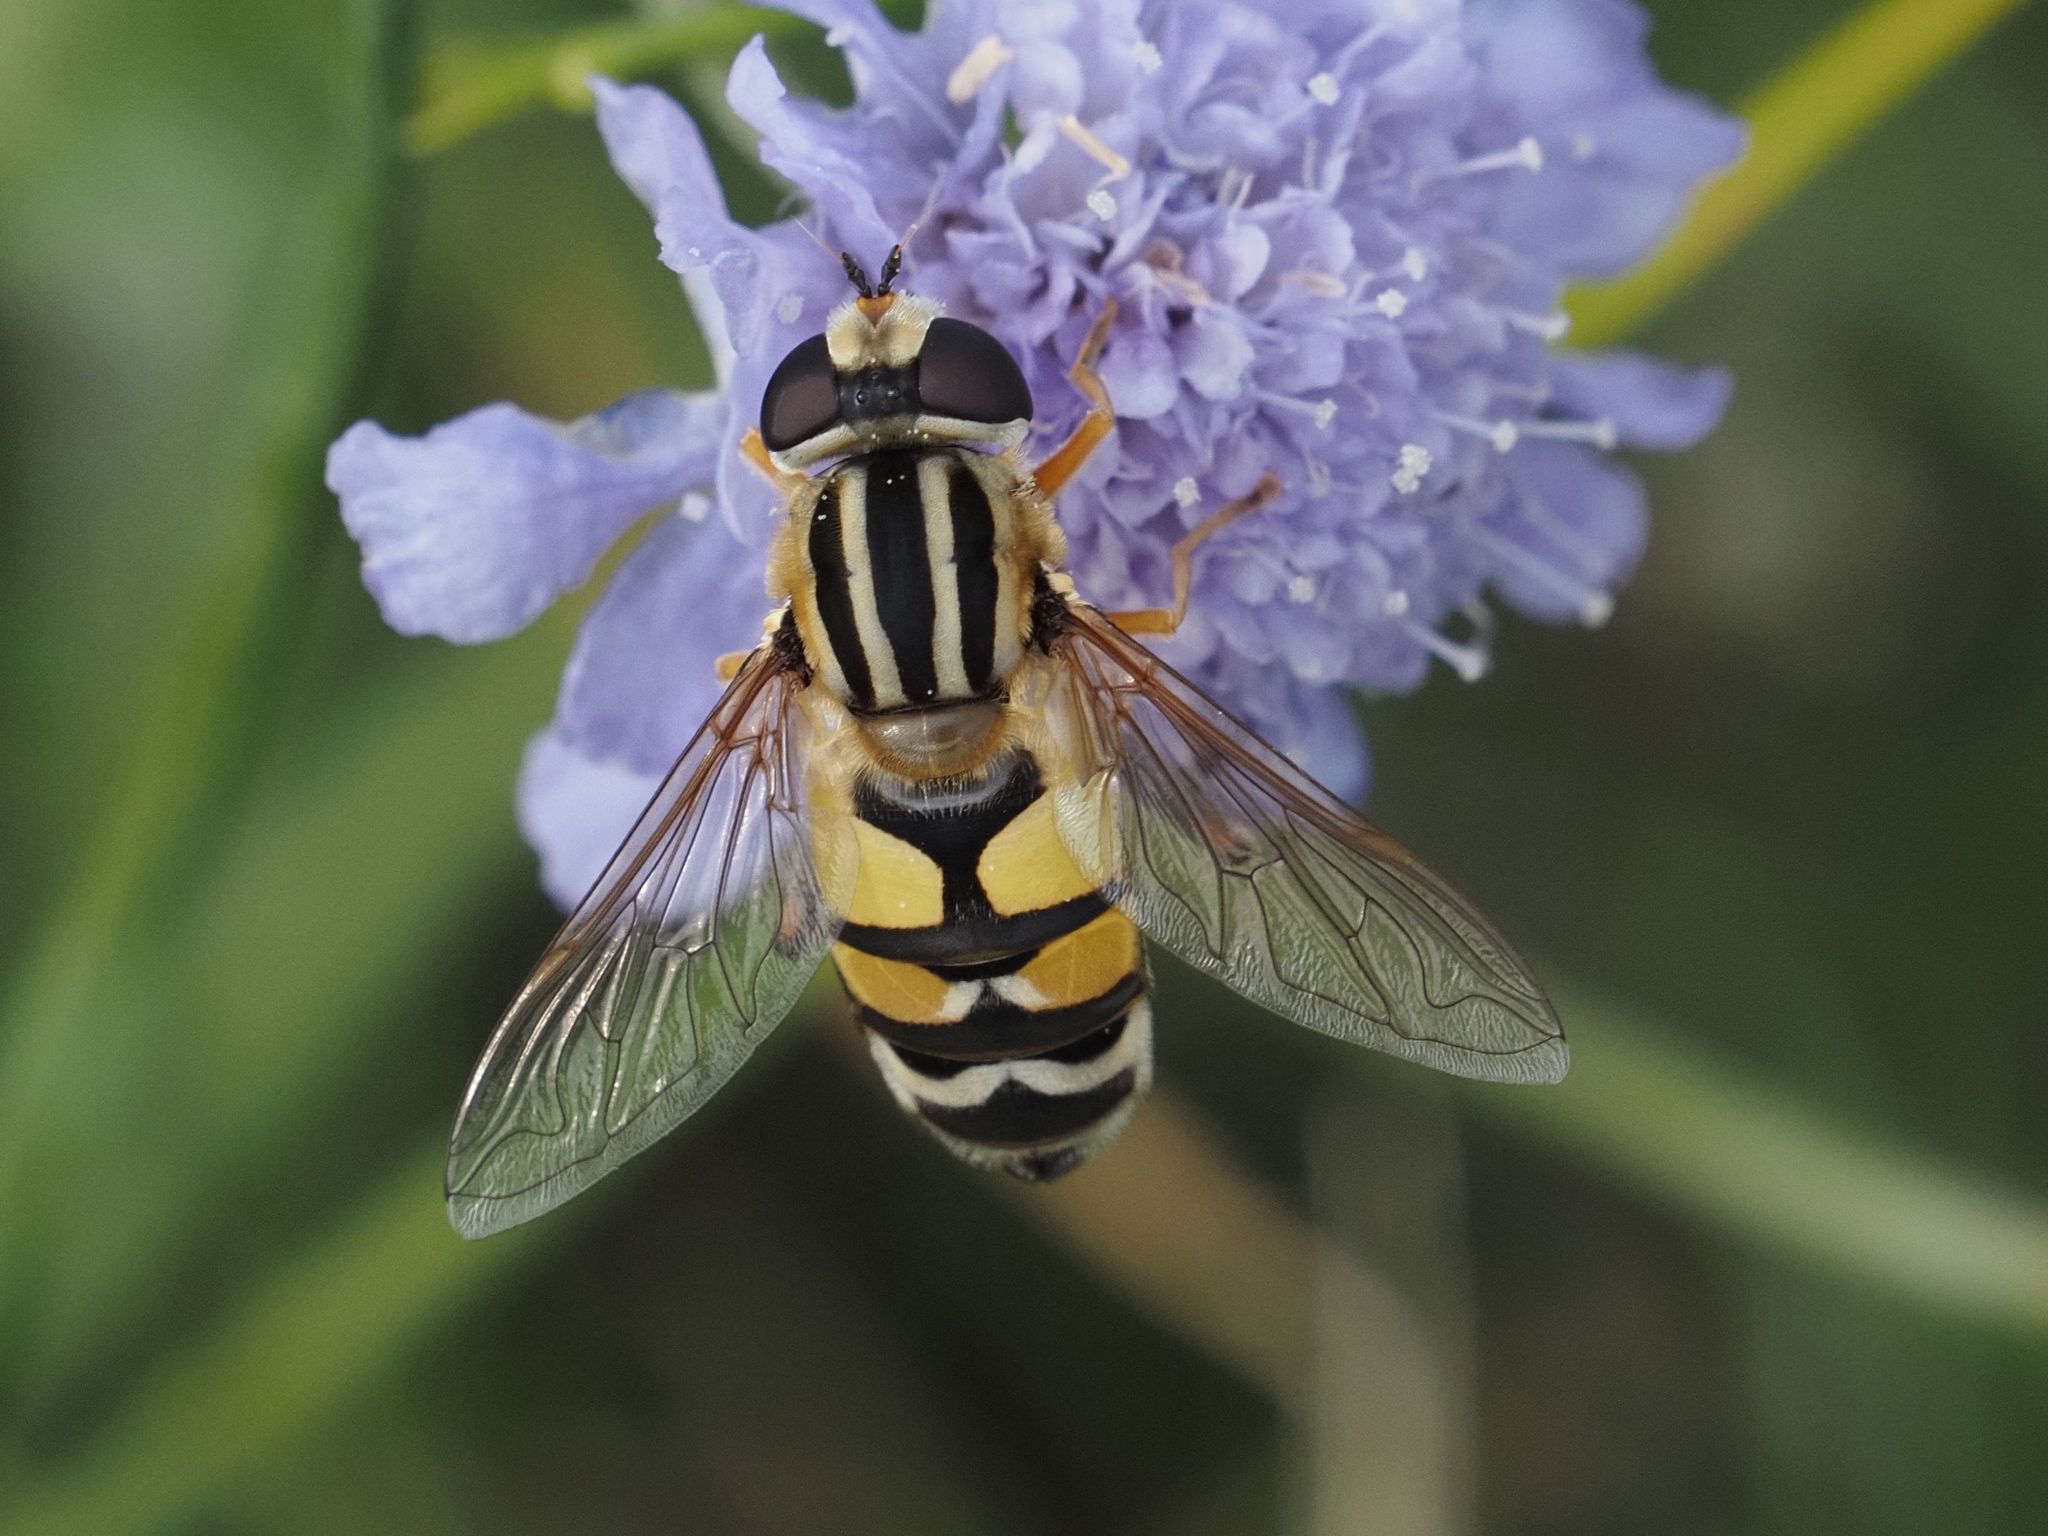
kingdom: Animalia
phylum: Arthropoda
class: Insecta
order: Diptera
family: Syrphidae
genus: Helophilus
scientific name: Helophilus trivittatus
